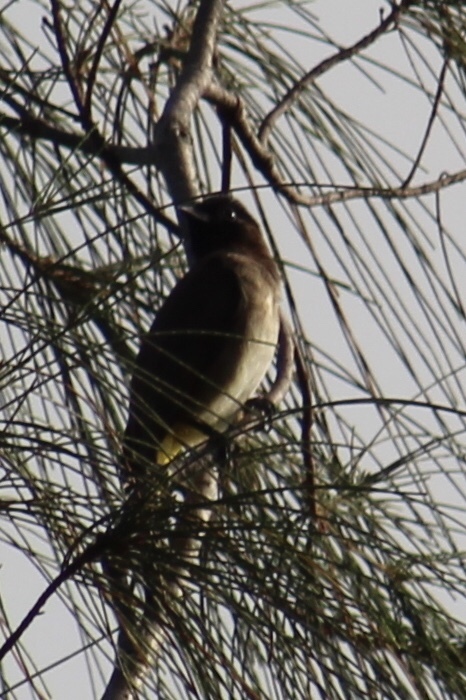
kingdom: Animalia
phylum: Chordata
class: Aves
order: Passeriformes
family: Pycnonotidae
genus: Pycnonotus
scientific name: Pycnonotus barbatus
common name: Common bulbul
